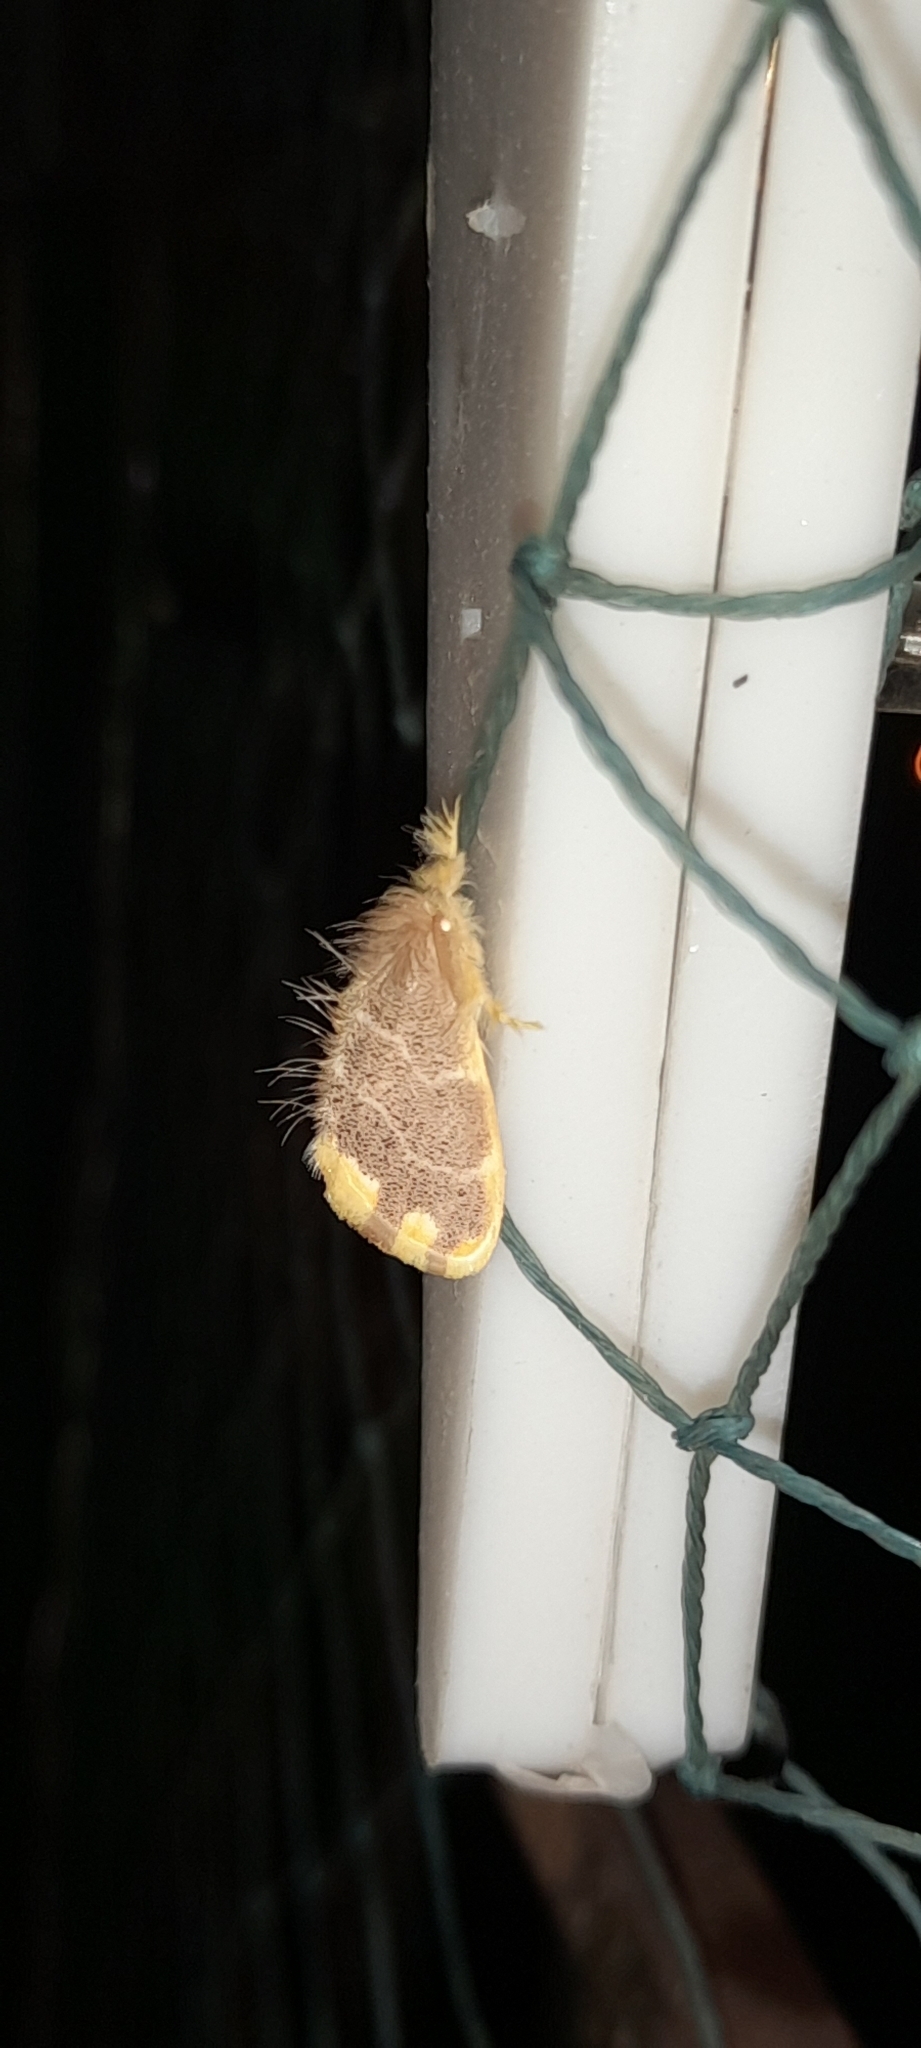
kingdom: Animalia
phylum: Arthropoda
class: Insecta
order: Lepidoptera
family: Erebidae
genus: Orvasca
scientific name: Orvasca subnotata
